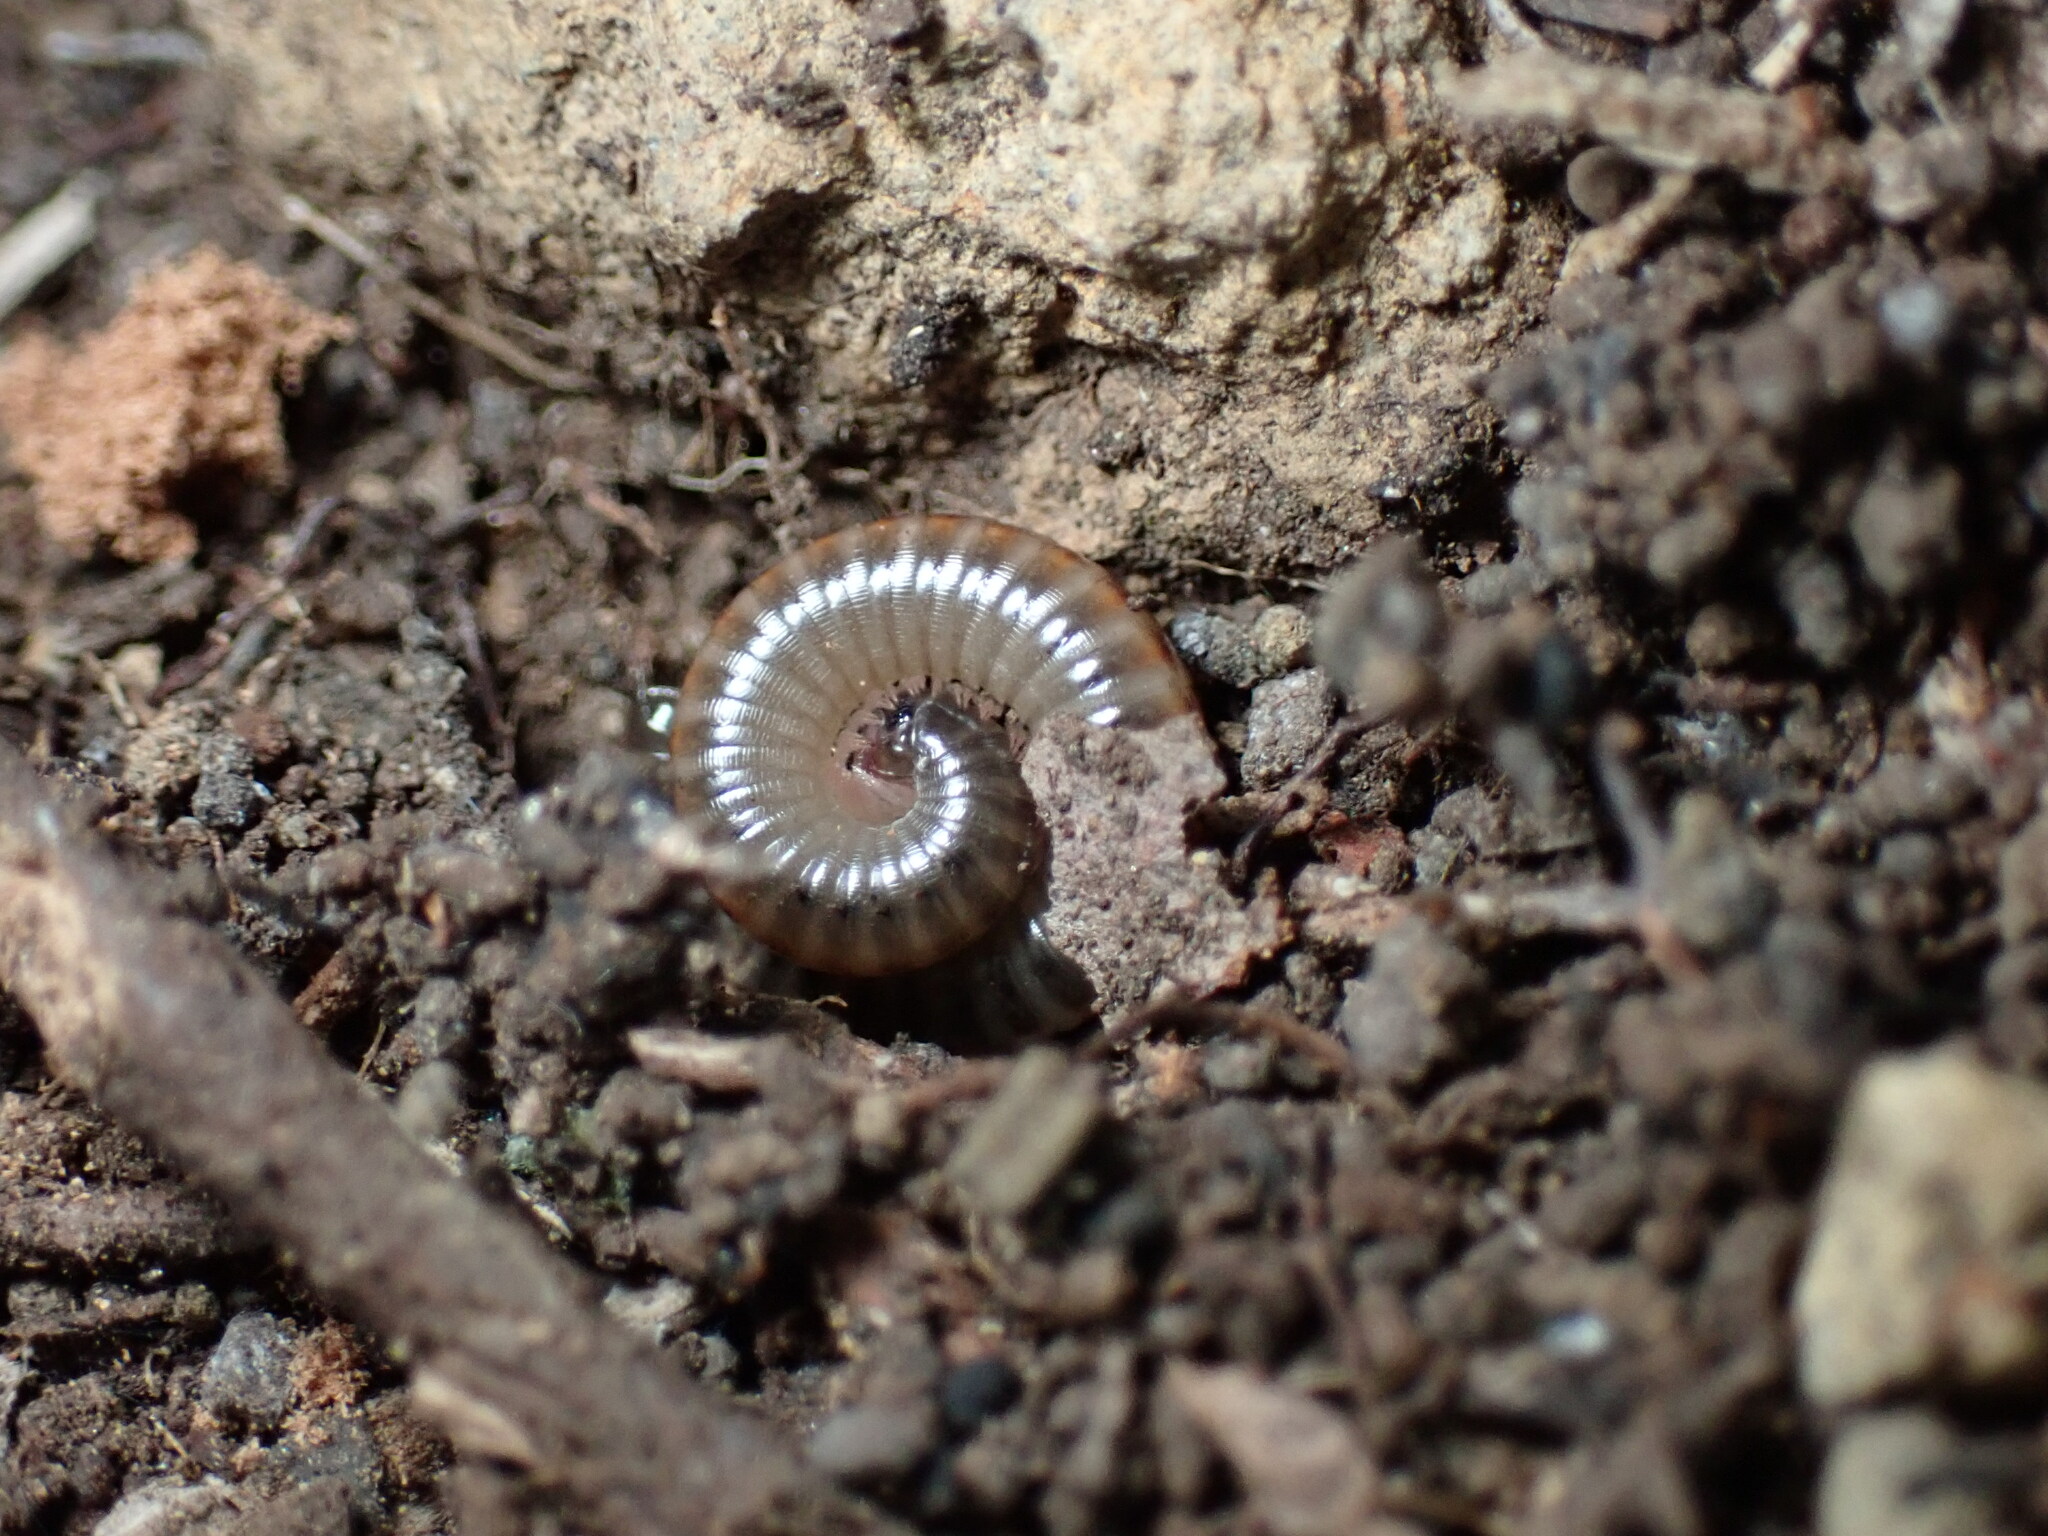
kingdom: Animalia
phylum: Arthropoda
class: Diplopoda
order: Julida
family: Julidae
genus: Ommatoiulus
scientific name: Ommatoiulus moreleti
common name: Portuguese millipede
